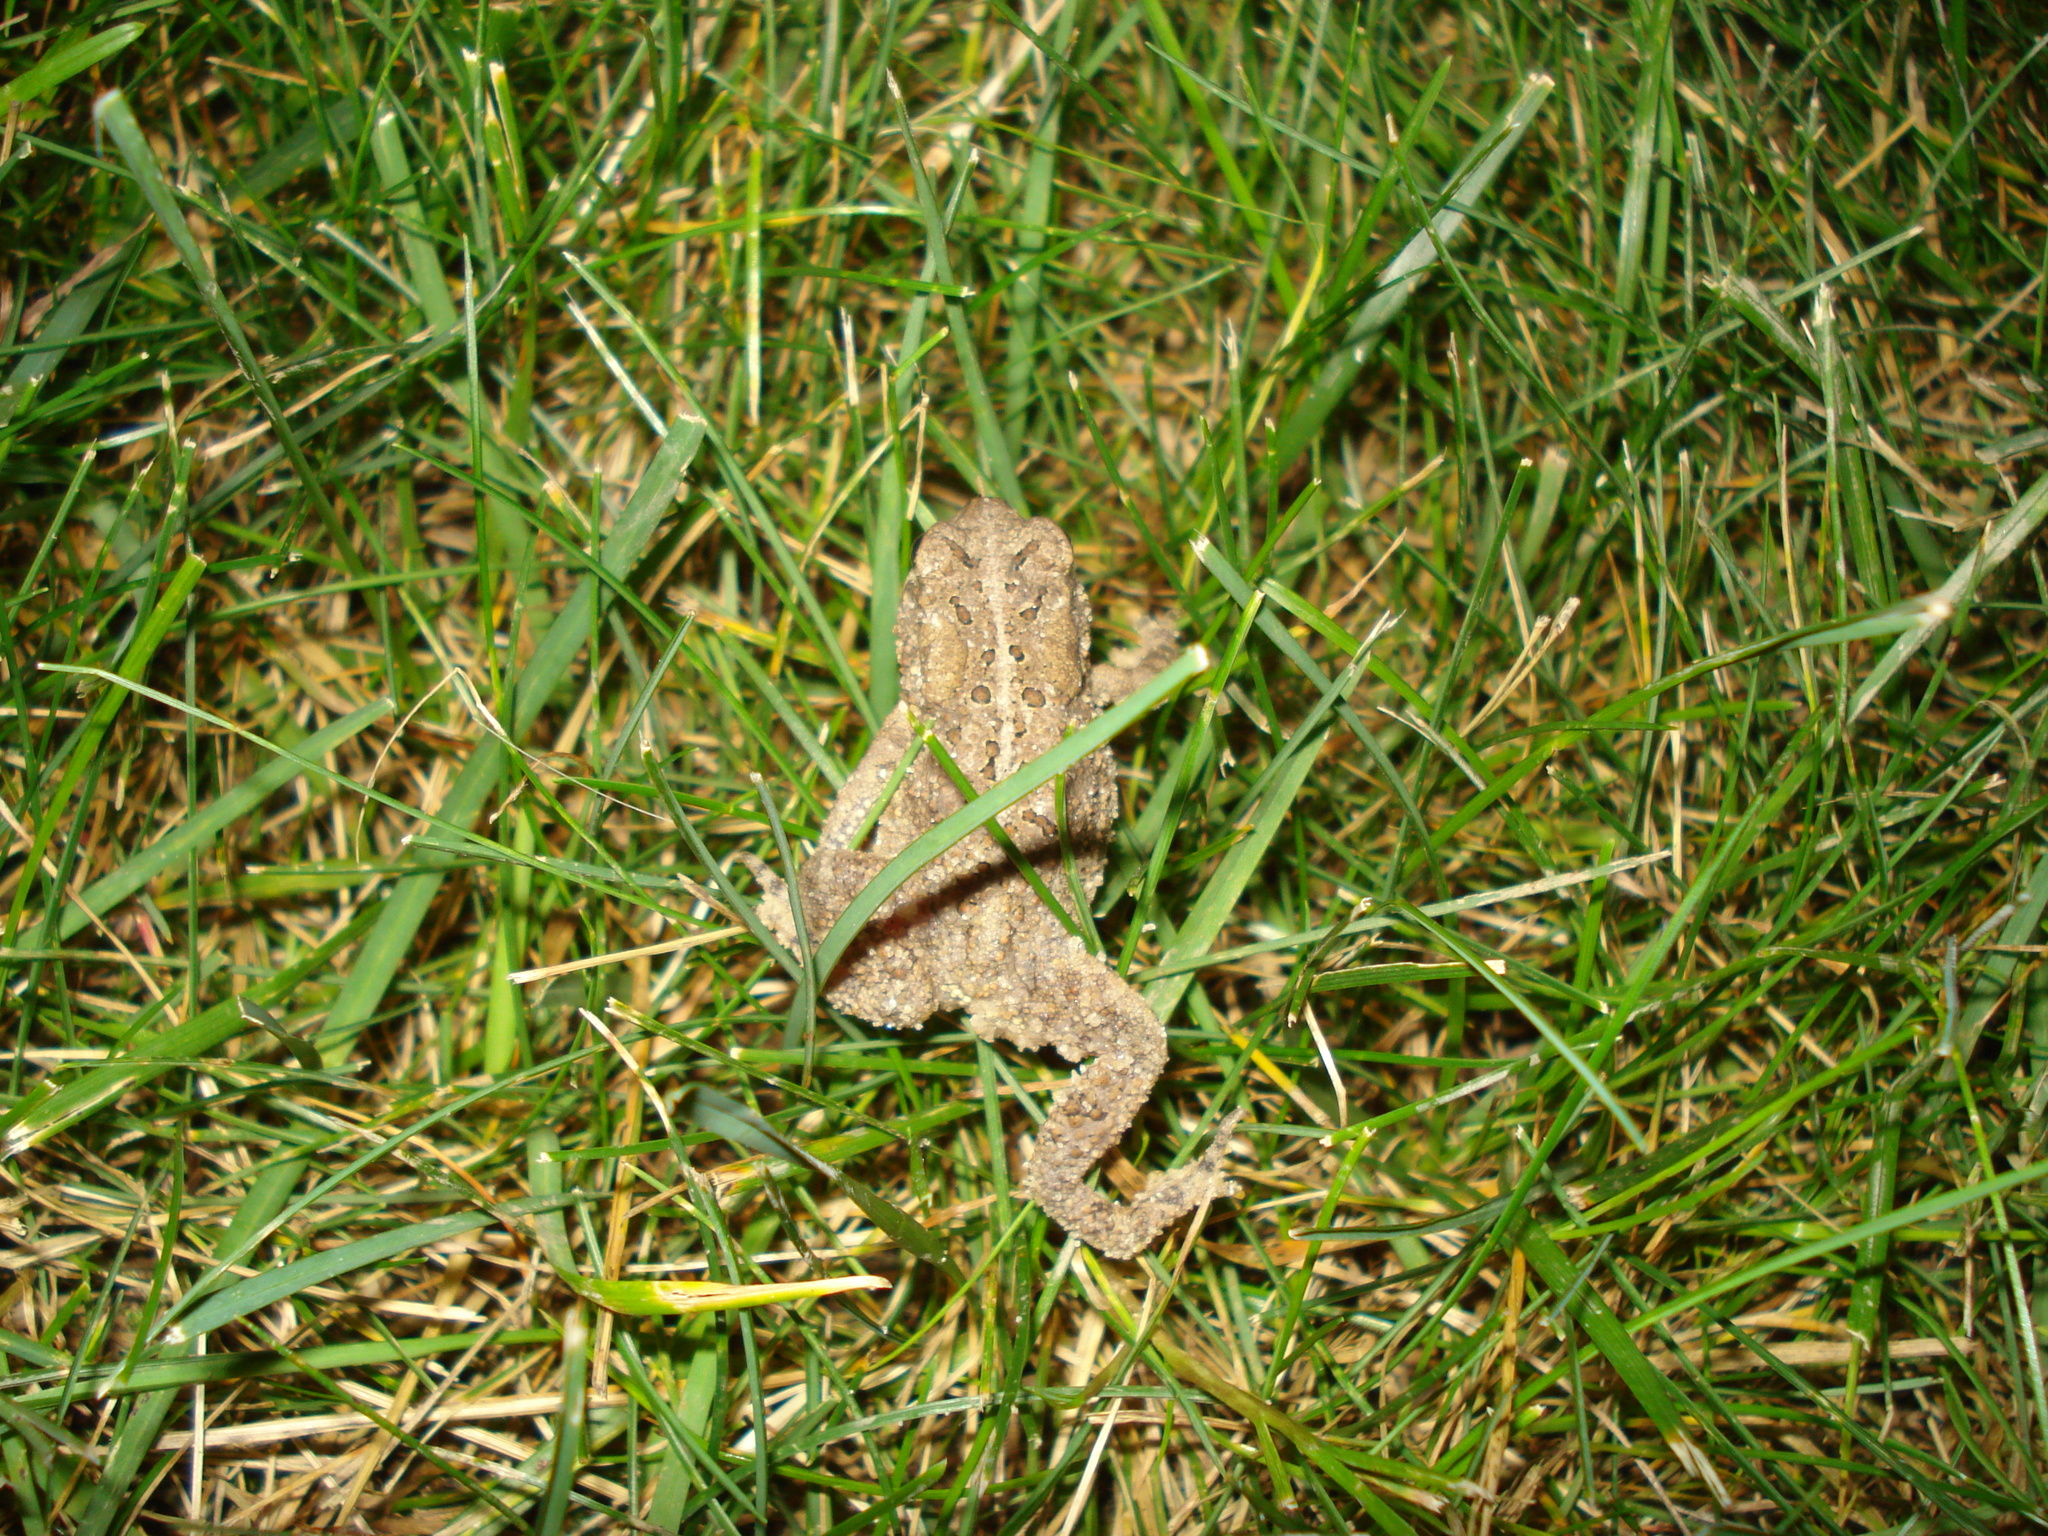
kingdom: Animalia
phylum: Chordata
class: Amphibia
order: Anura
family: Bufonidae
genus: Anaxyrus
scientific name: Anaxyrus americanus
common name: American toad
